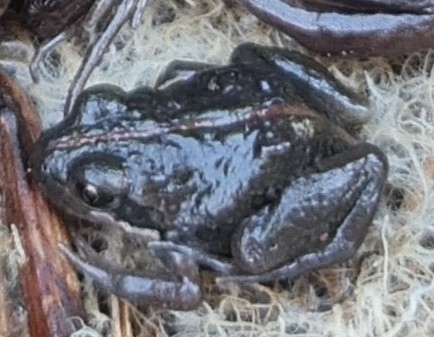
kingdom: Animalia
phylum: Chordata
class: Amphibia
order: Anura
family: Limnodynastidae
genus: Limnodynastes
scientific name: Limnodynastes tasmaniensis
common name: Spotted marsh frog
